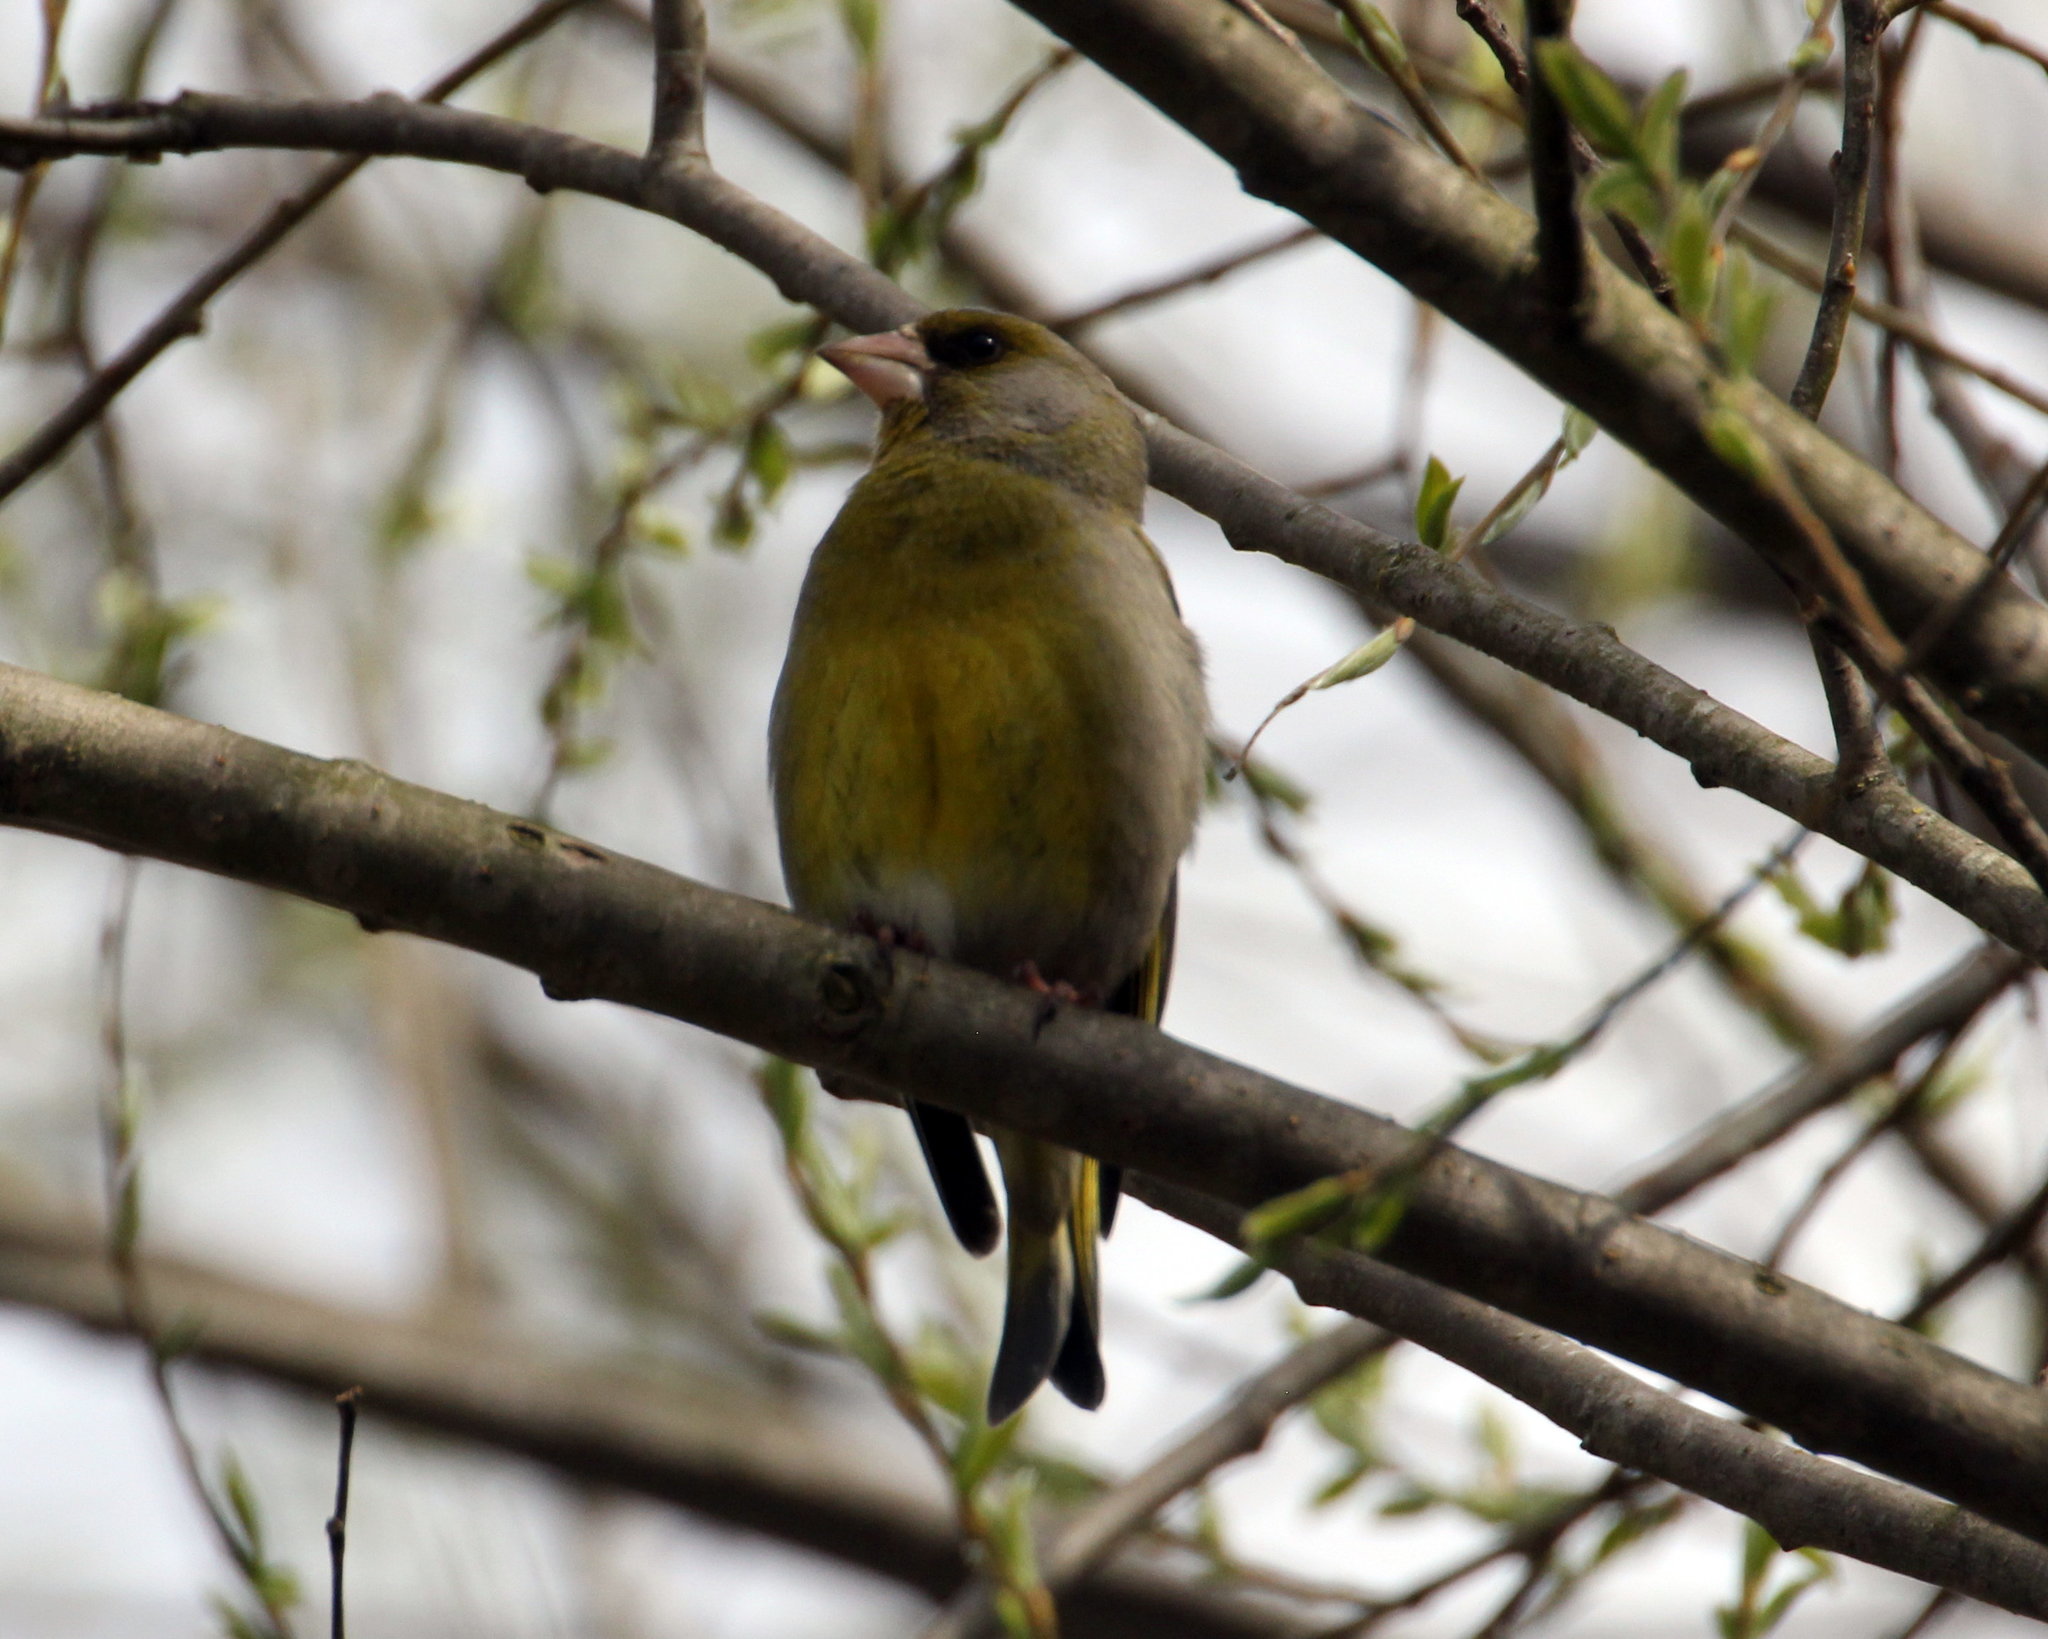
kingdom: Plantae
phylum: Tracheophyta
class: Liliopsida
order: Poales
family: Poaceae
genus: Chloris
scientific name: Chloris chloris
